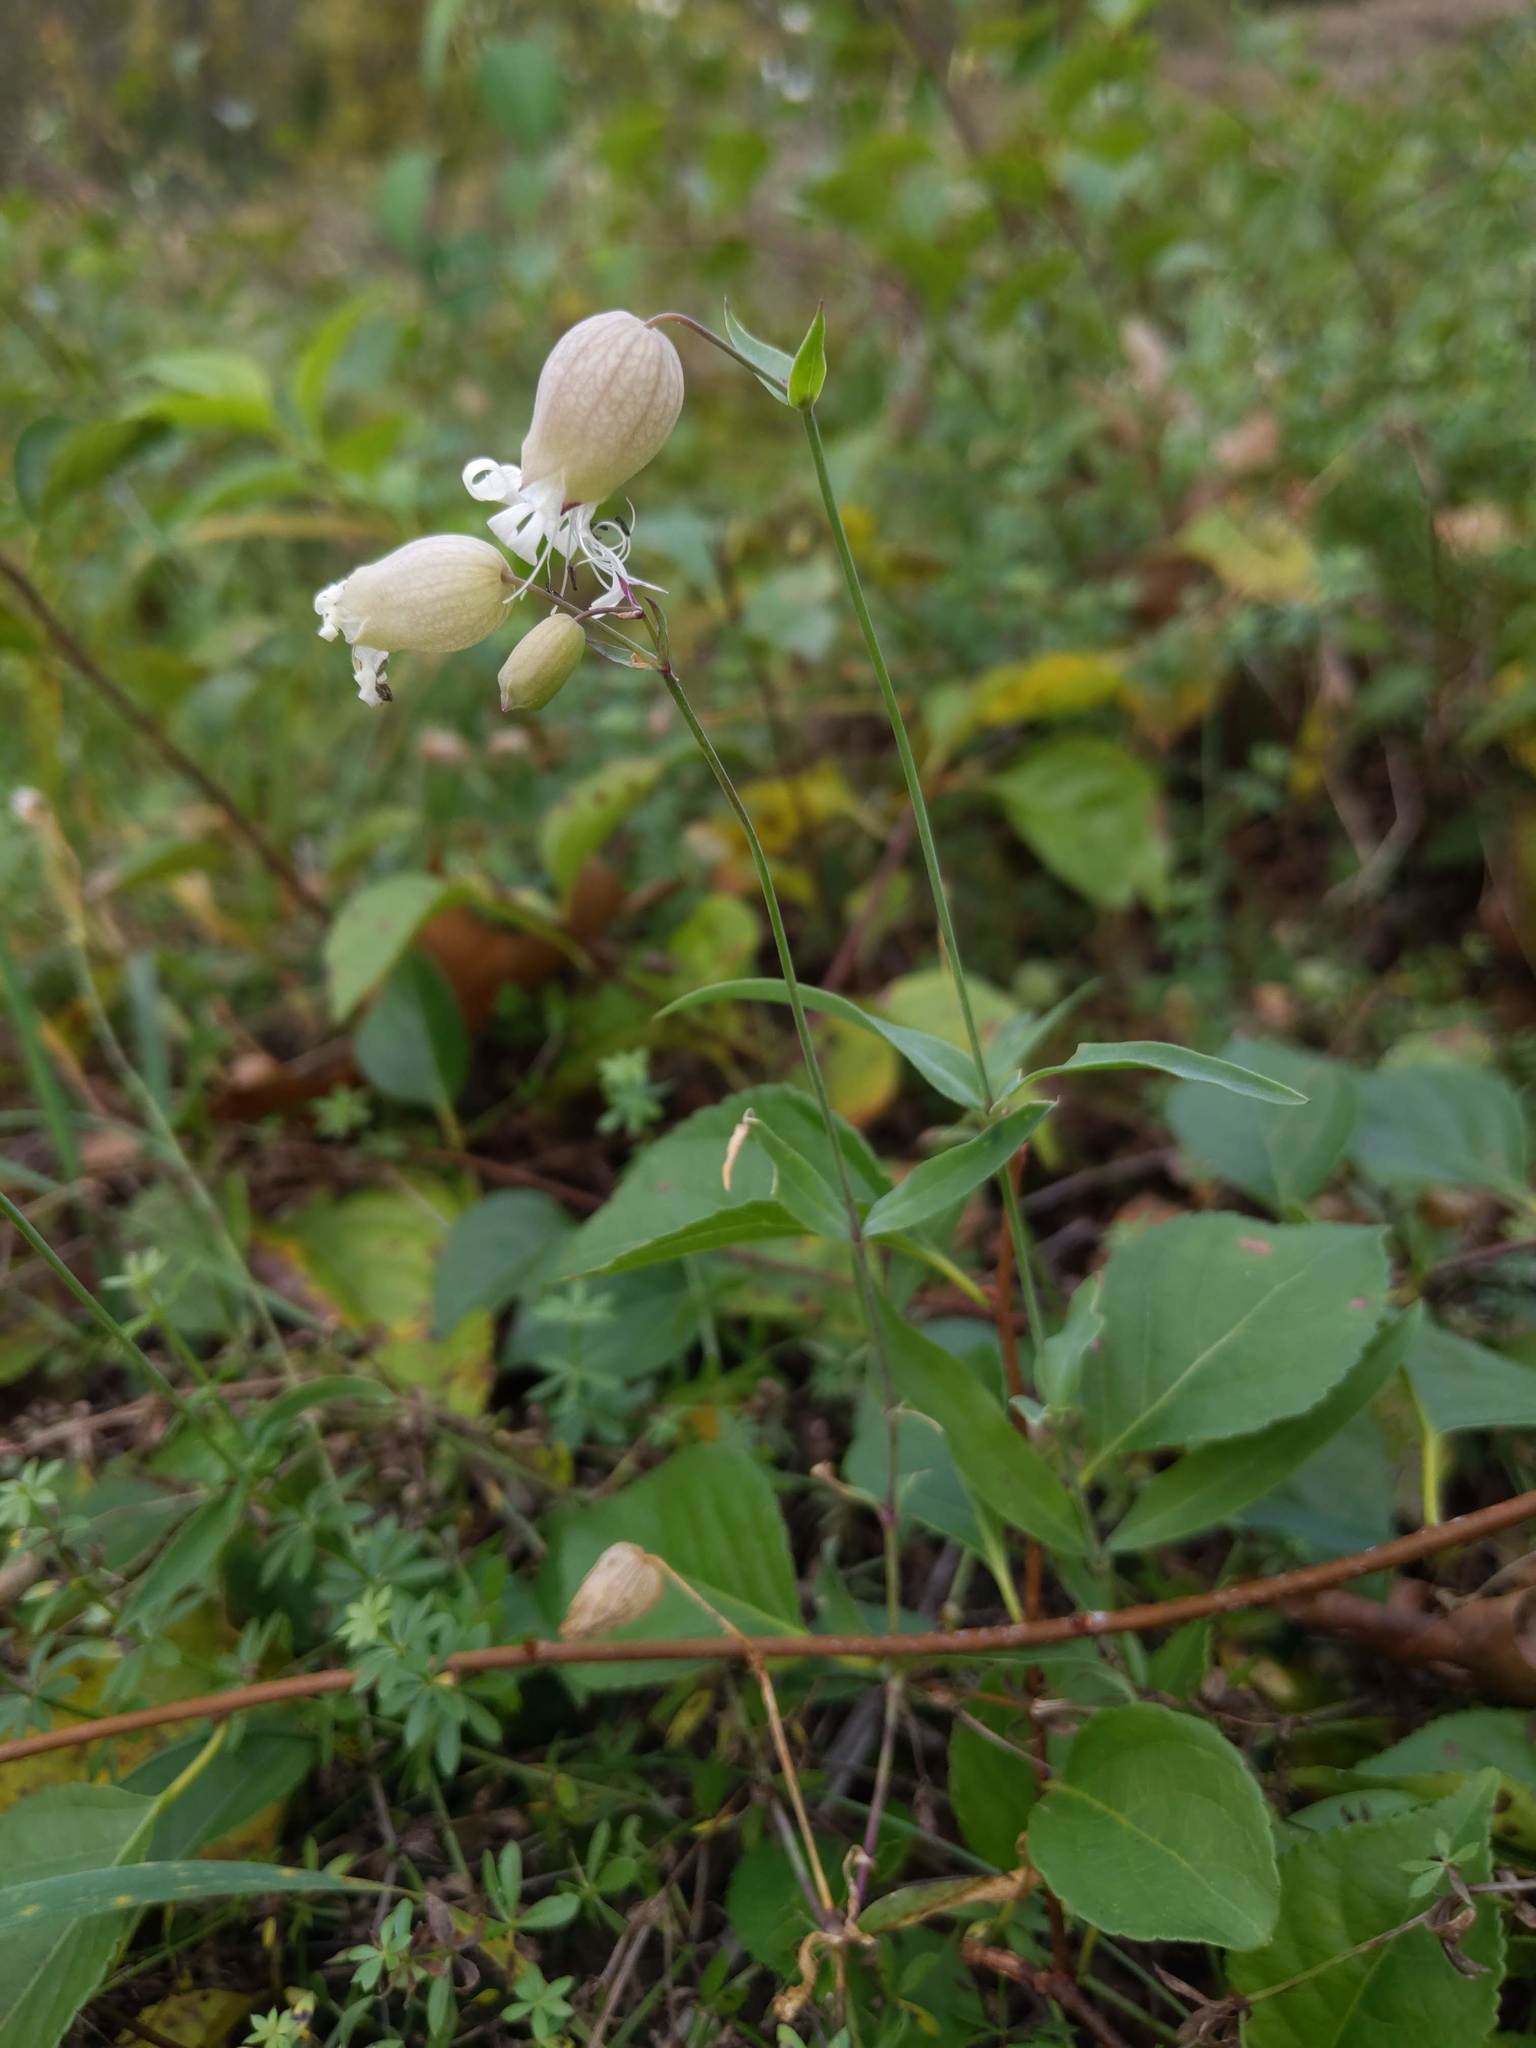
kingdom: Plantae
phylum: Tracheophyta
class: Magnoliopsida
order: Caryophyllales
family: Caryophyllaceae
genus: Silene
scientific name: Silene vulgaris
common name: Bladder campion
